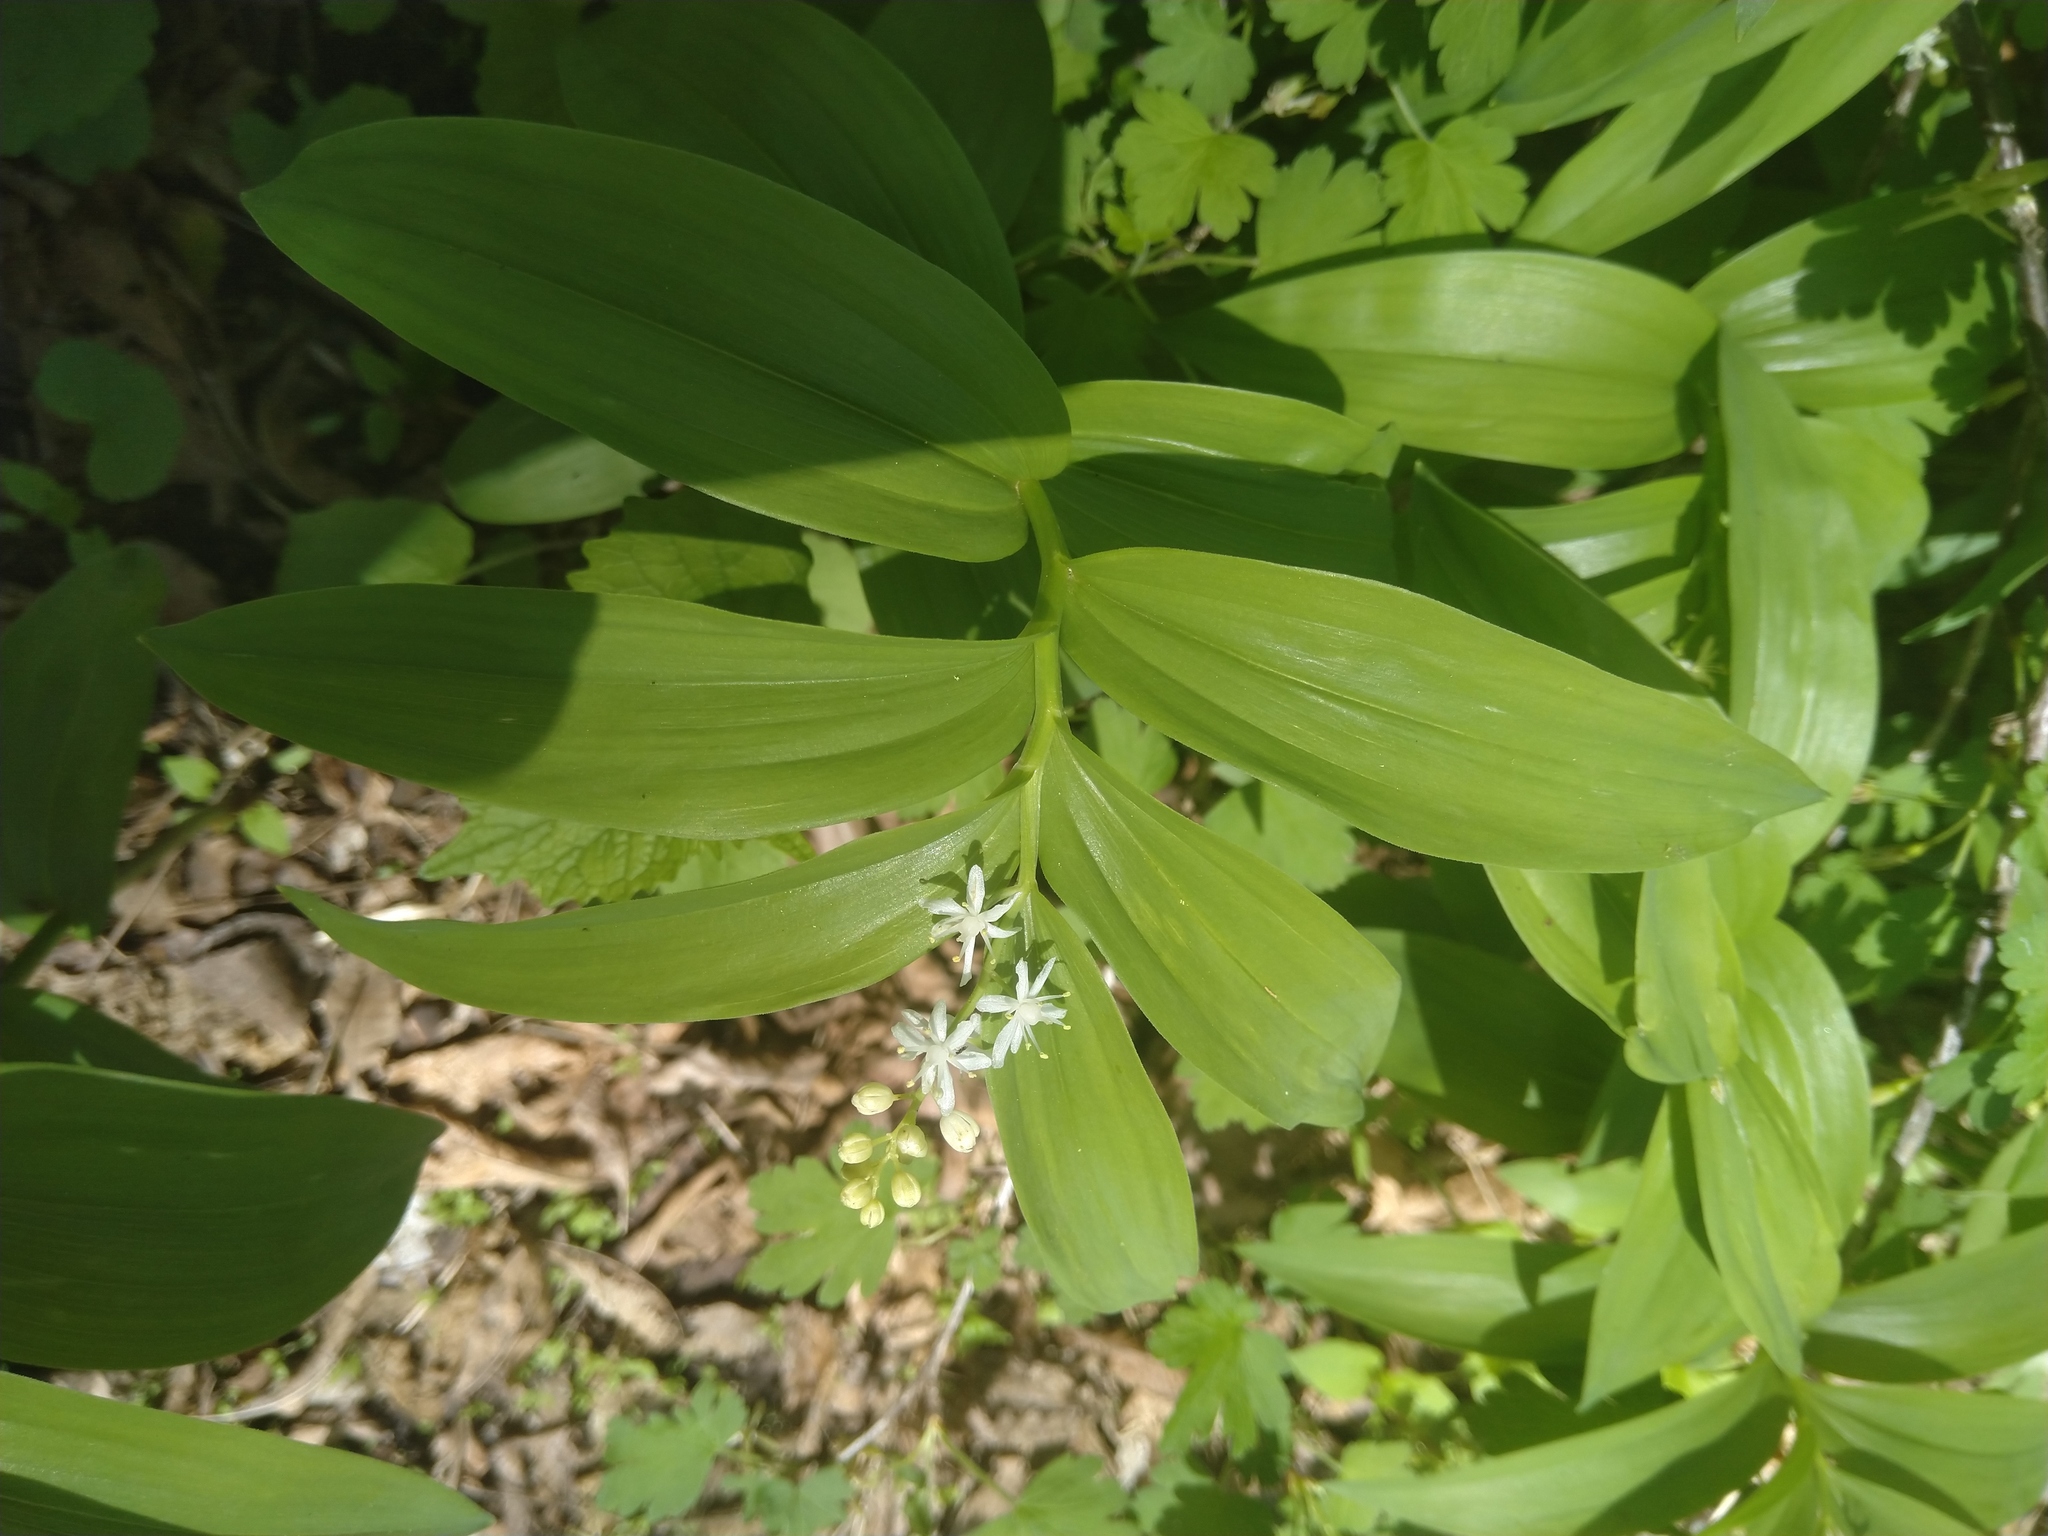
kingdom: Plantae
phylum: Tracheophyta
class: Liliopsida
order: Asparagales
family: Asparagaceae
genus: Maianthemum
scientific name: Maianthemum stellatum
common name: Little false solomon's seal
